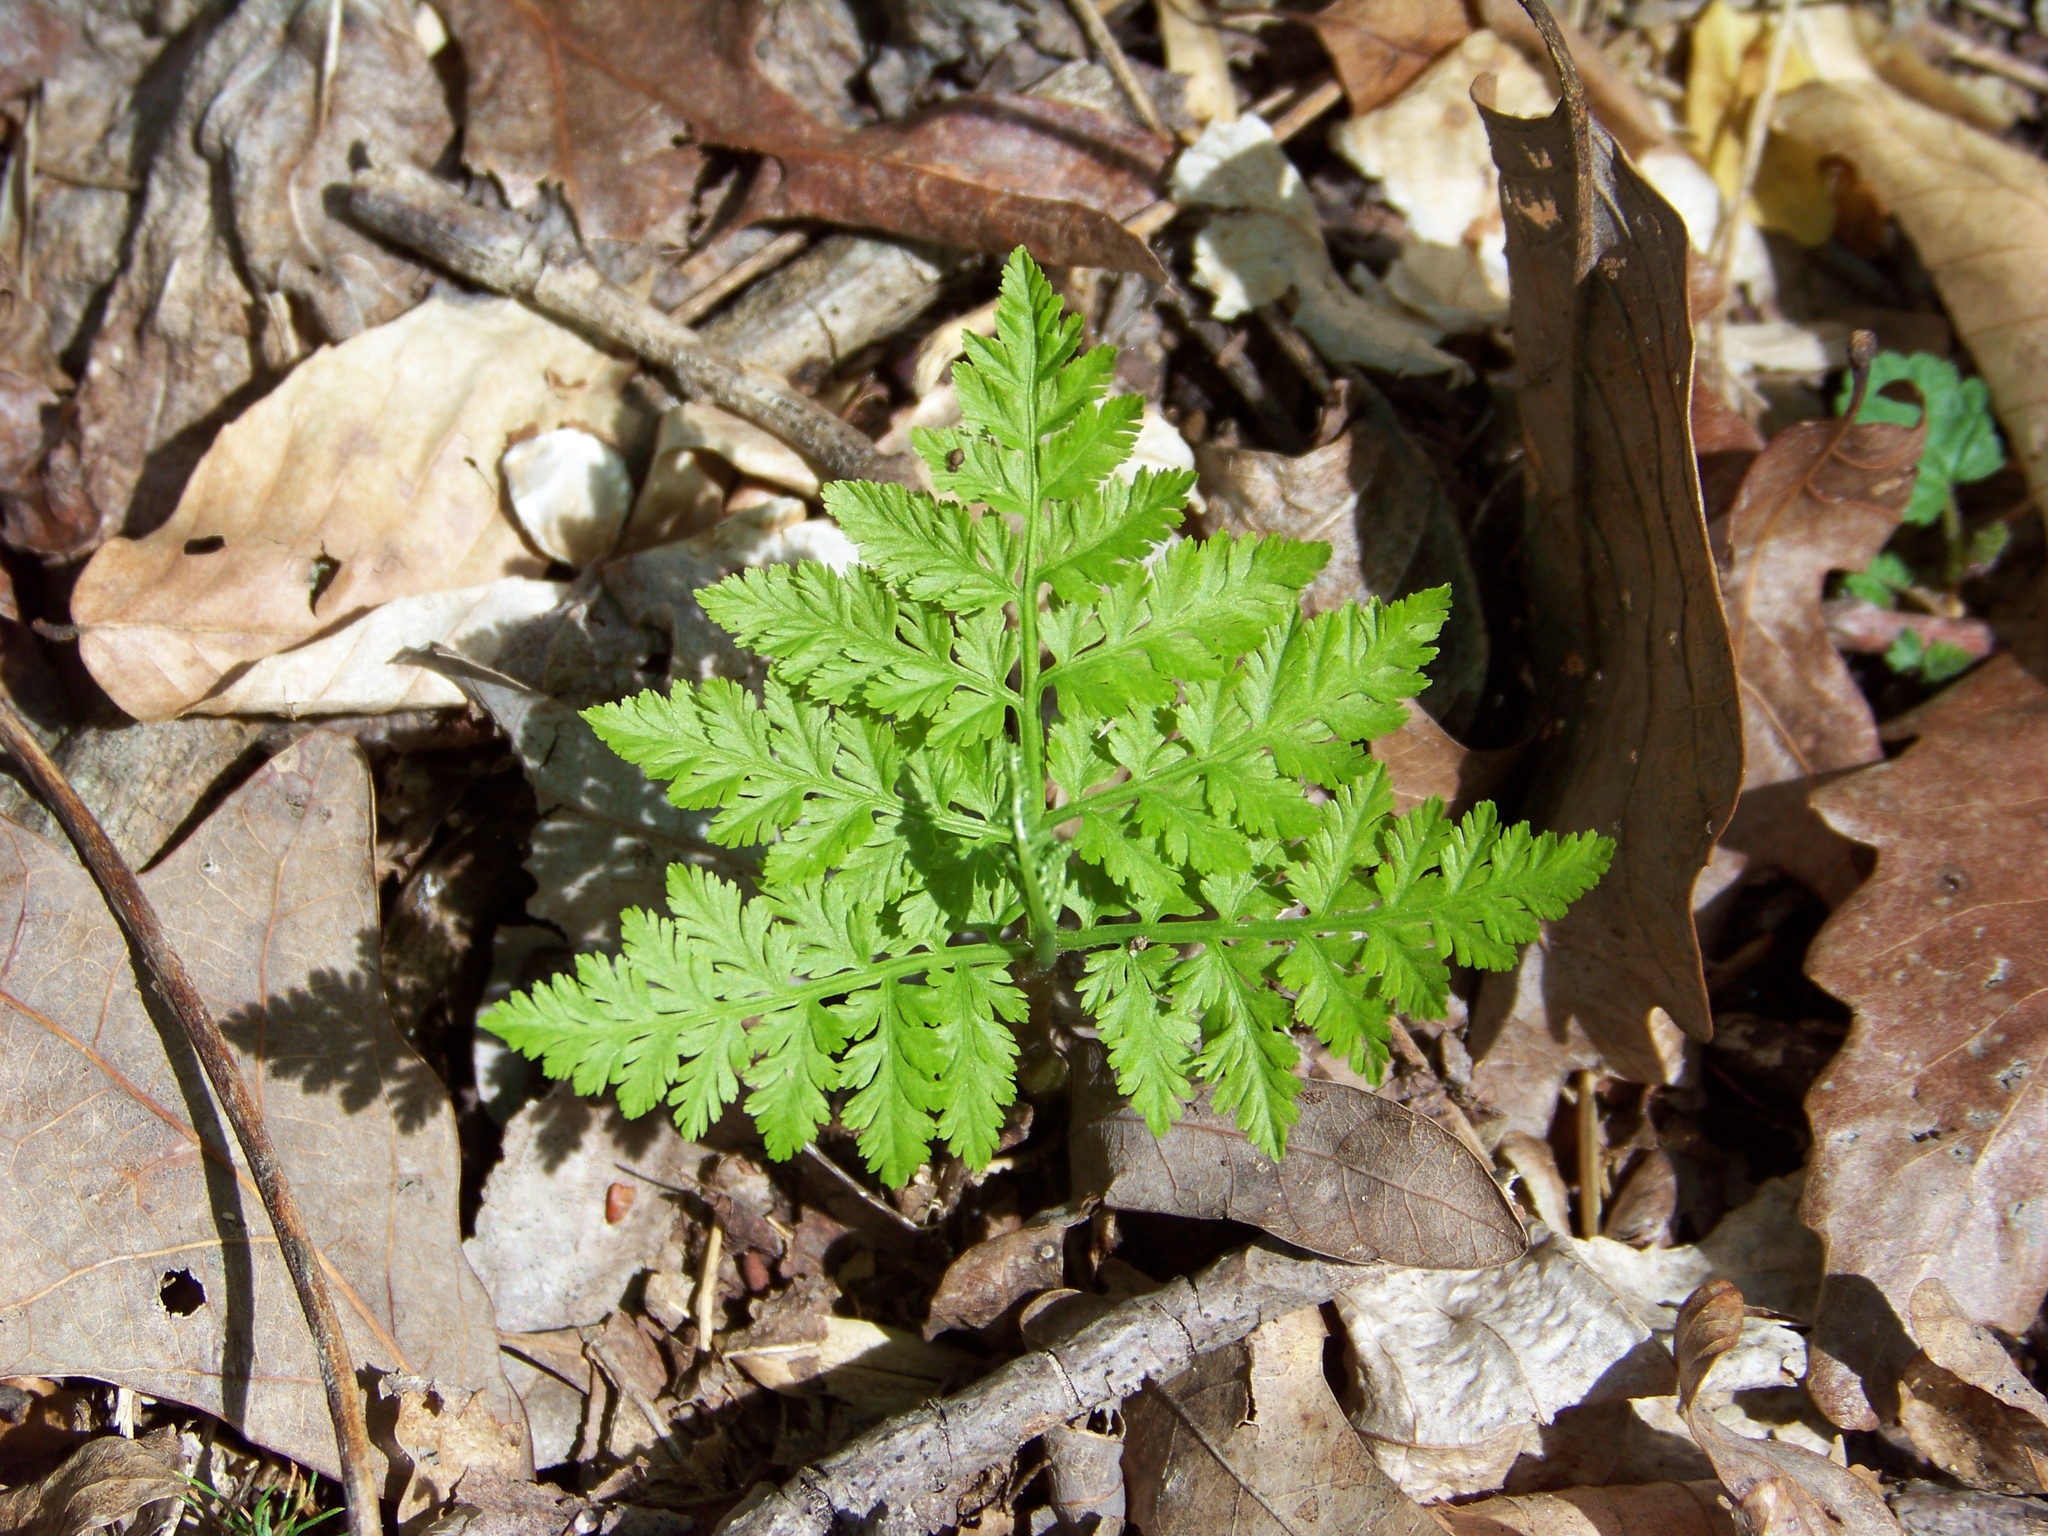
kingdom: Plantae
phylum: Tracheophyta
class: Polypodiopsida
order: Ophioglossales
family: Ophioglossaceae
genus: Botrypus
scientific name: Botrypus virginianus
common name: Common grapefern
